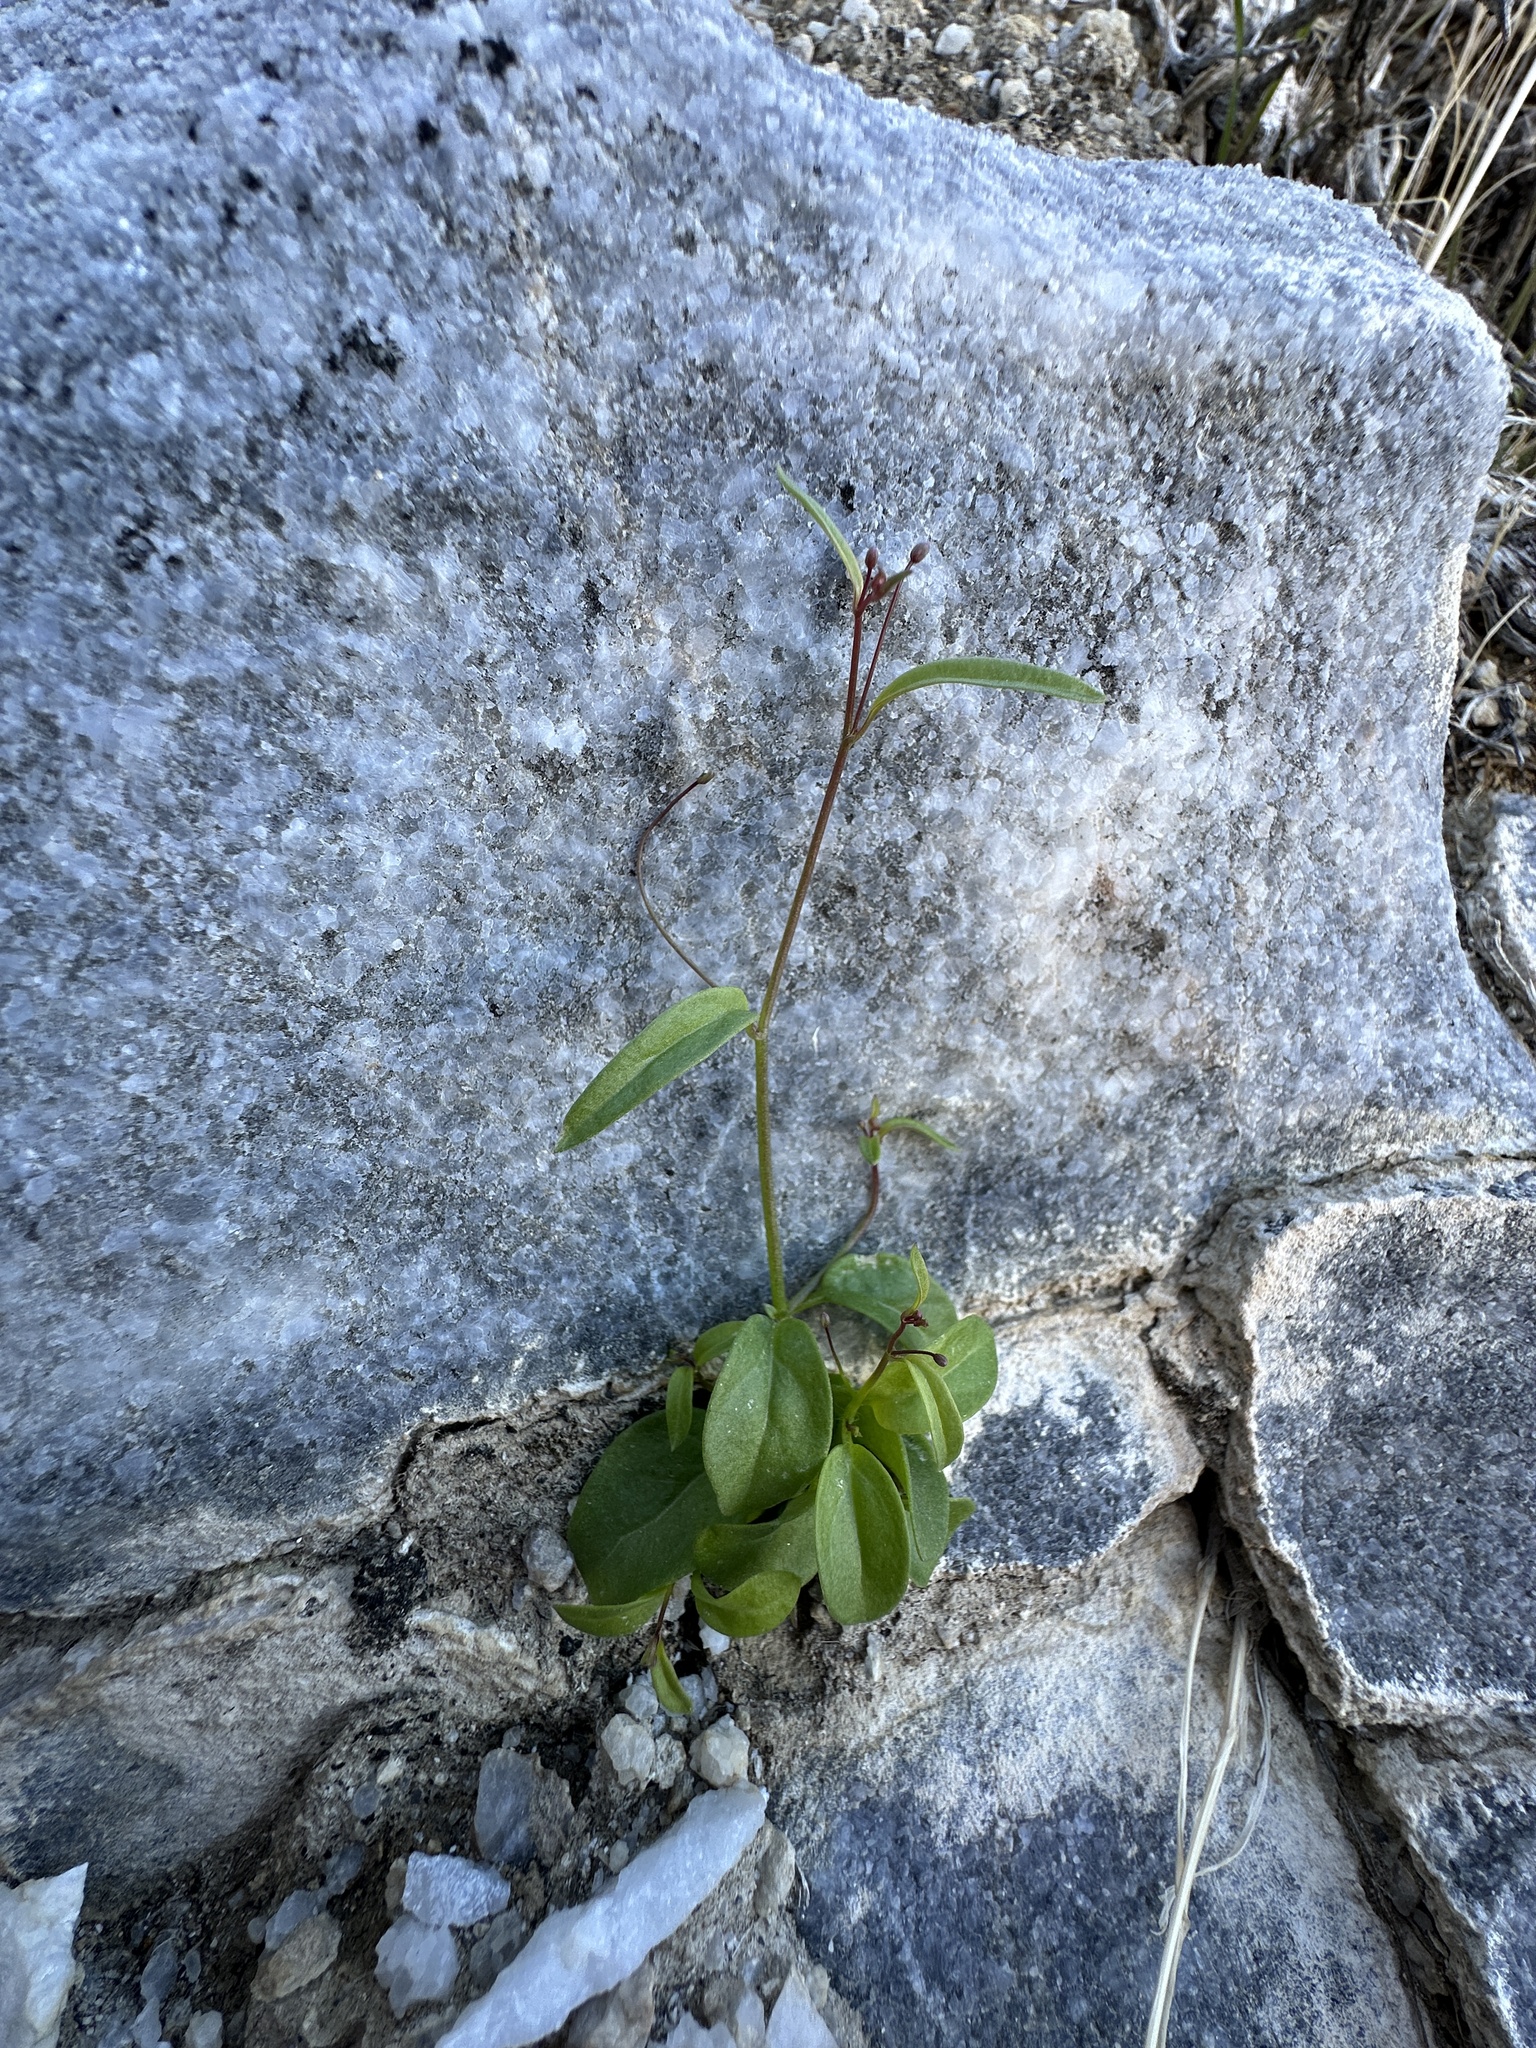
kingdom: Plantae
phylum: Tracheophyta
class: Magnoliopsida
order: Lamiales
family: Plantaginaceae
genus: Neogaerrhinum
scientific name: Neogaerrhinum filipes
